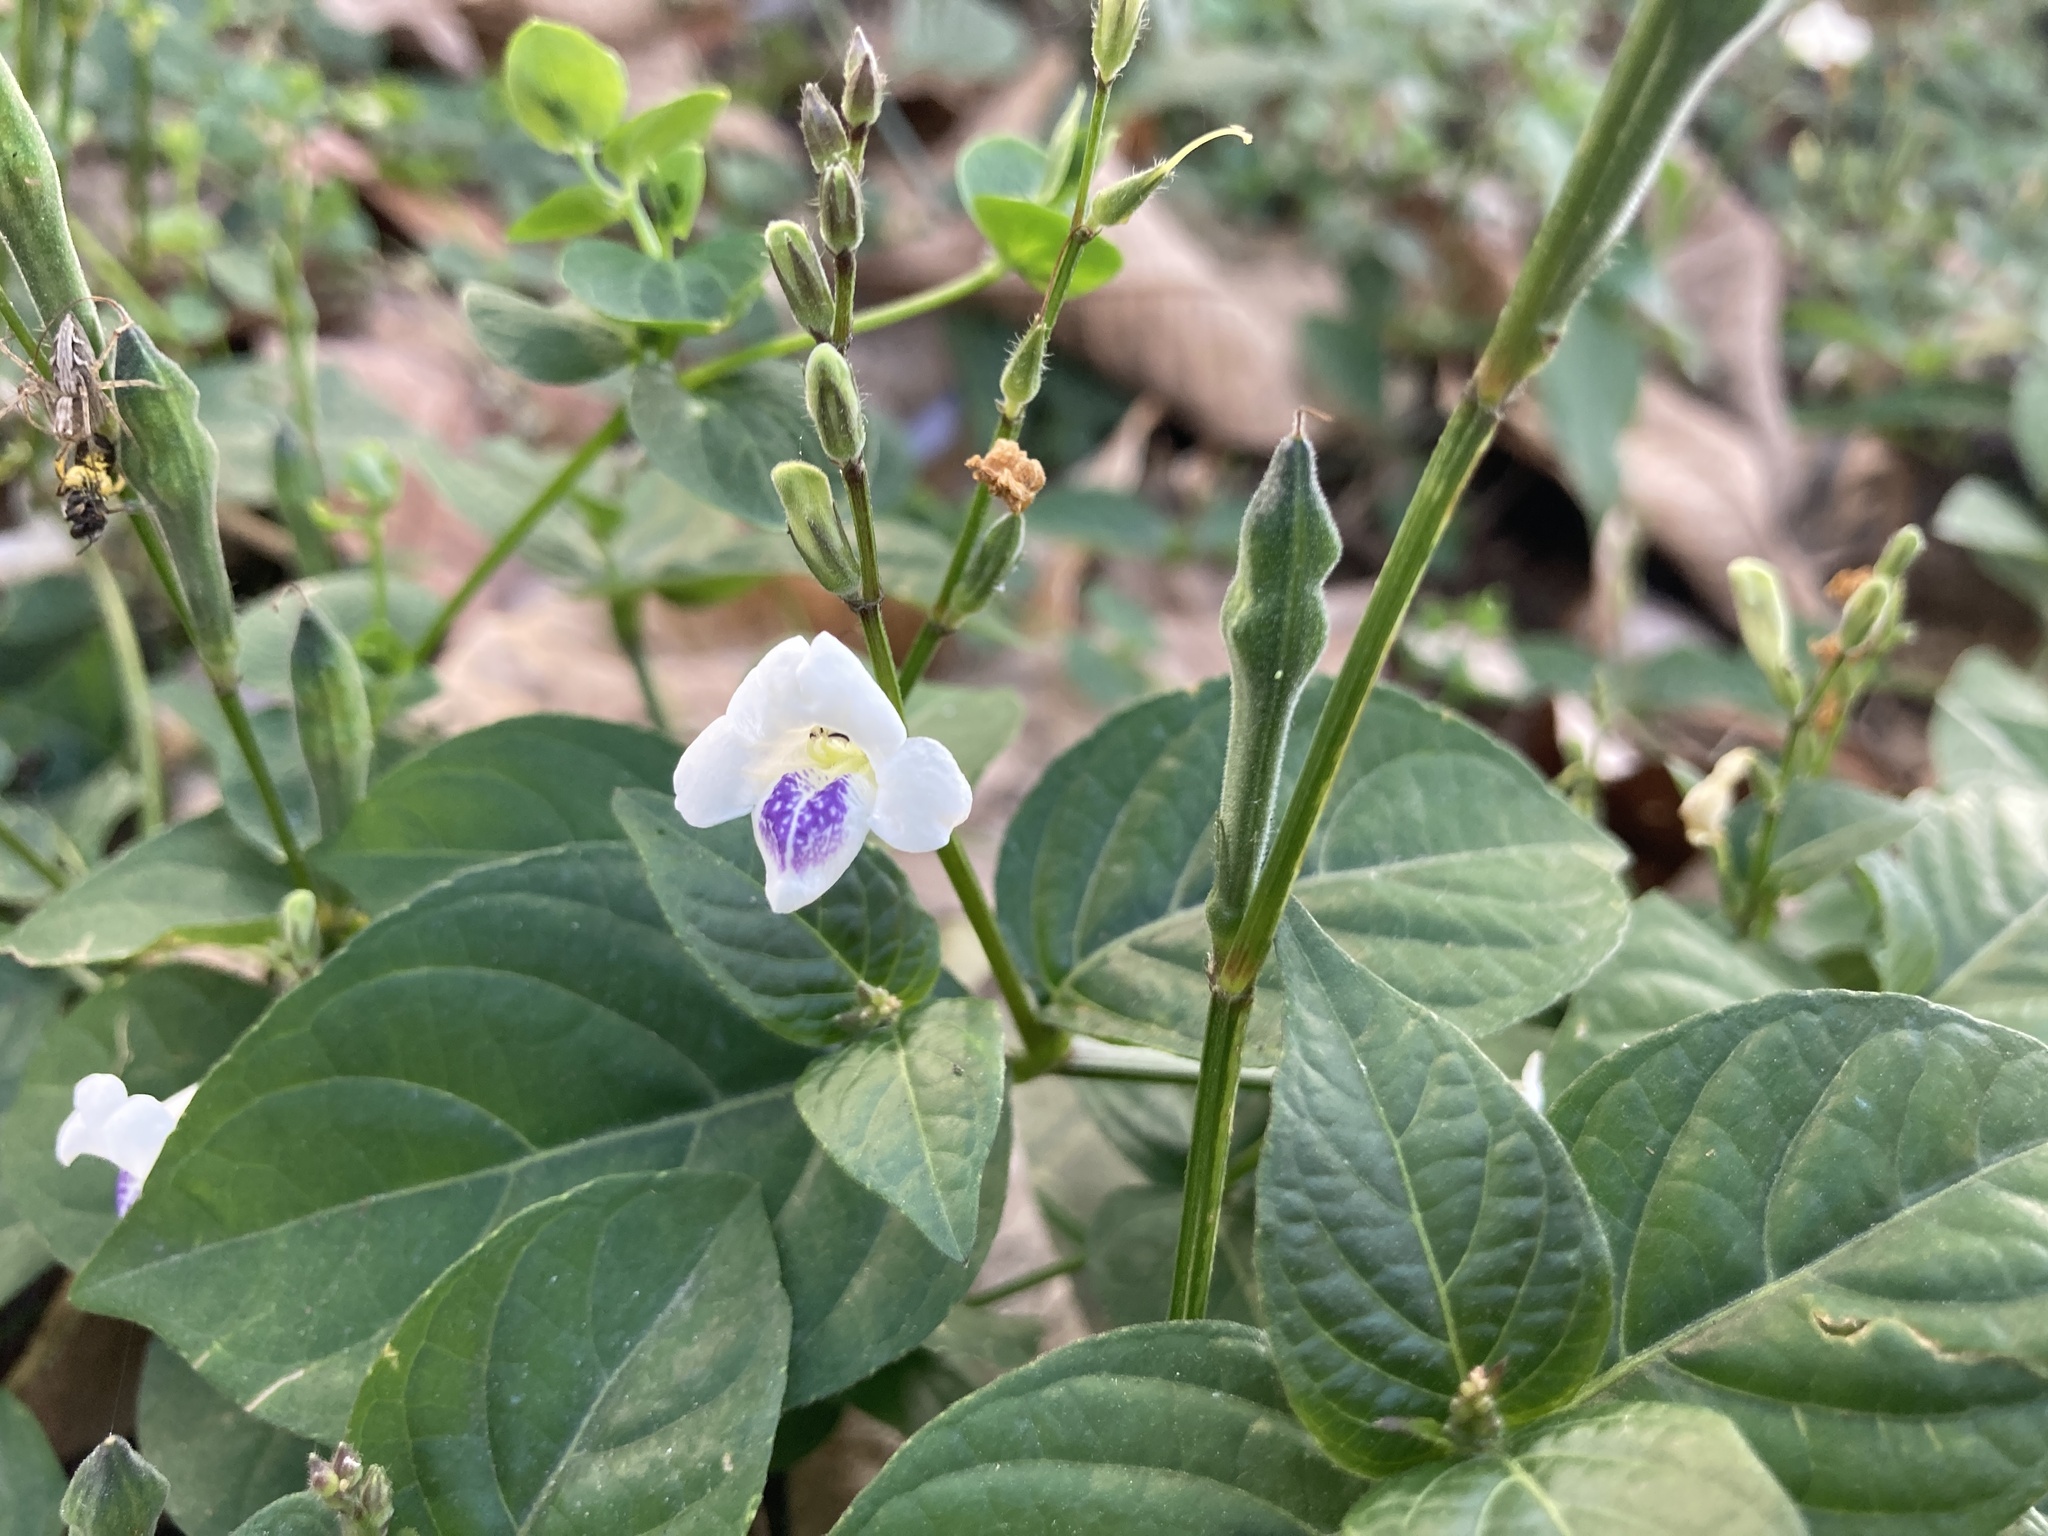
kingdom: Plantae
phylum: Tracheophyta
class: Magnoliopsida
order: Lamiales
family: Acanthaceae
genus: Asystasia
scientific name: Asystasia intrusa
